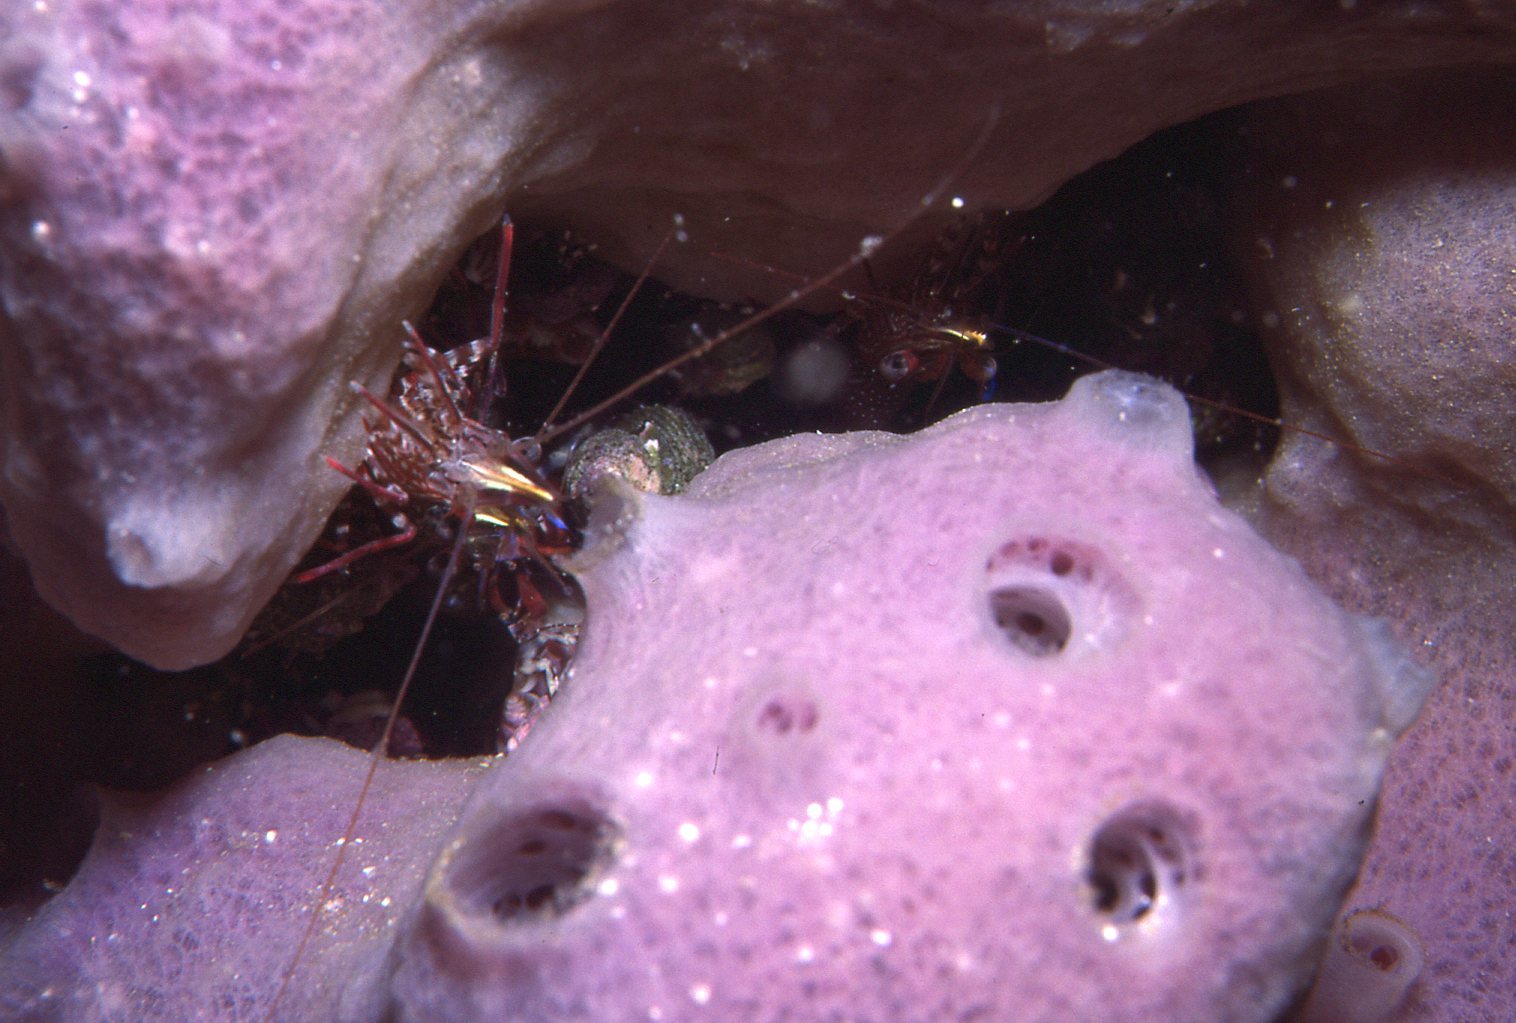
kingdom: Animalia
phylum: Arthropoda
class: Malacostraca
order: Decapoda
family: Rhynchocinetidae
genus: Rhynchocinetes
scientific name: Rhynchocinetes serratus
